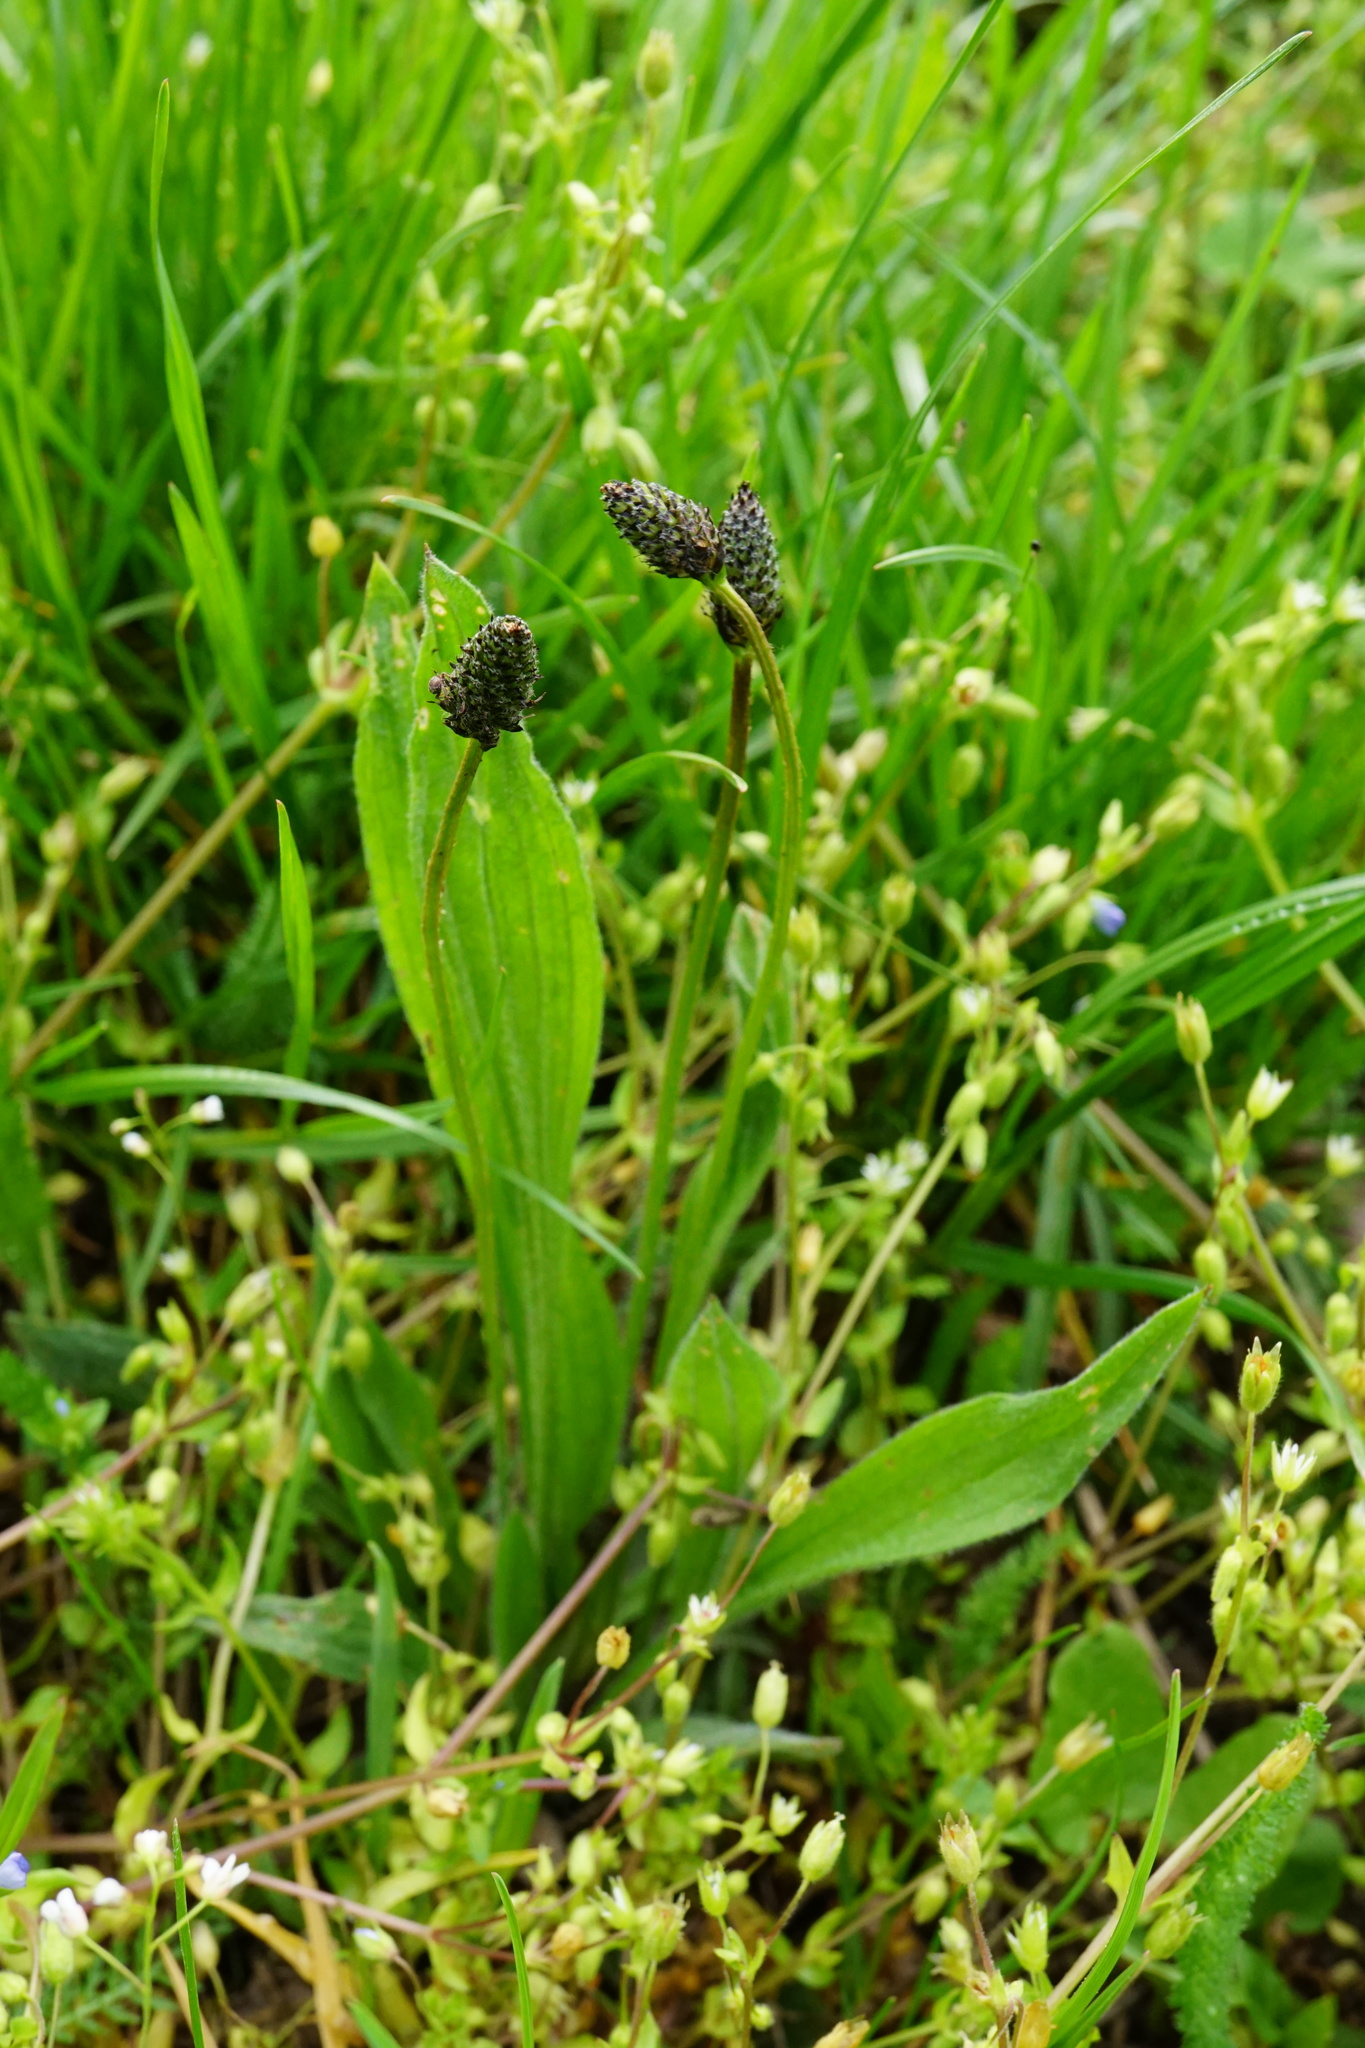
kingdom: Plantae
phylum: Tracheophyta
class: Magnoliopsida
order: Lamiales
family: Plantaginaceae
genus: Plantago
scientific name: Plantago lanceolata
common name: Ribwort plantain
